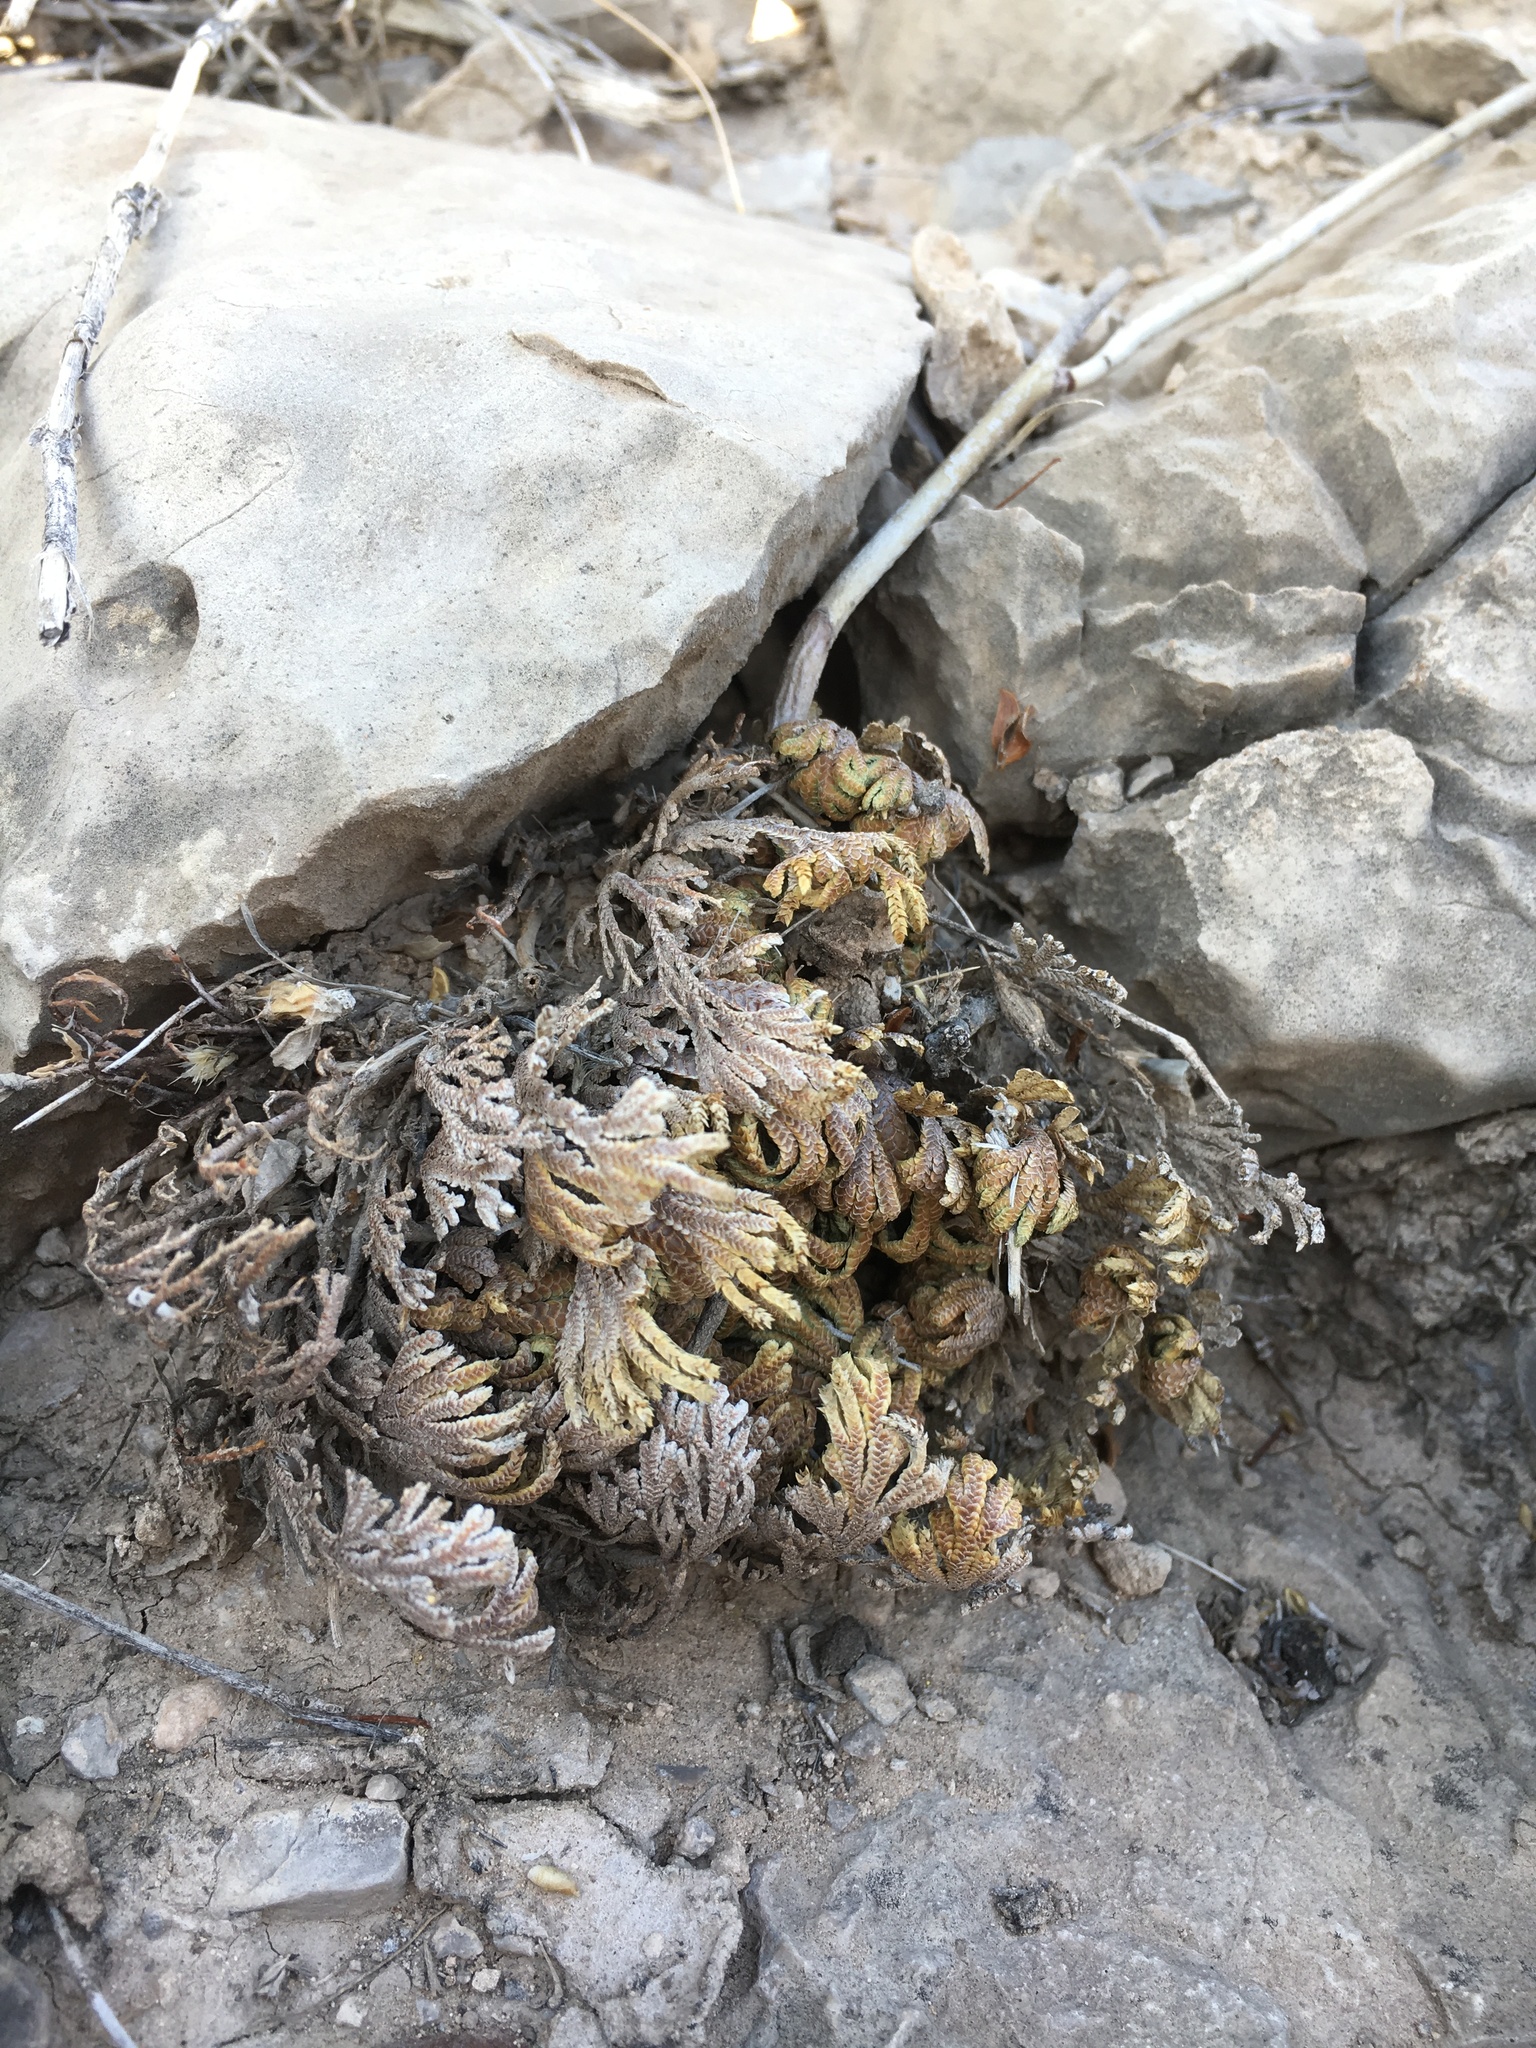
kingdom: Plantae
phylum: Tracheophyta
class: Lycopodiopsida
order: Selaginellales
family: Selaginellaceae
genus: Selaginella
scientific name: Selaginella lepidophylla
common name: Rose-of-jericho
